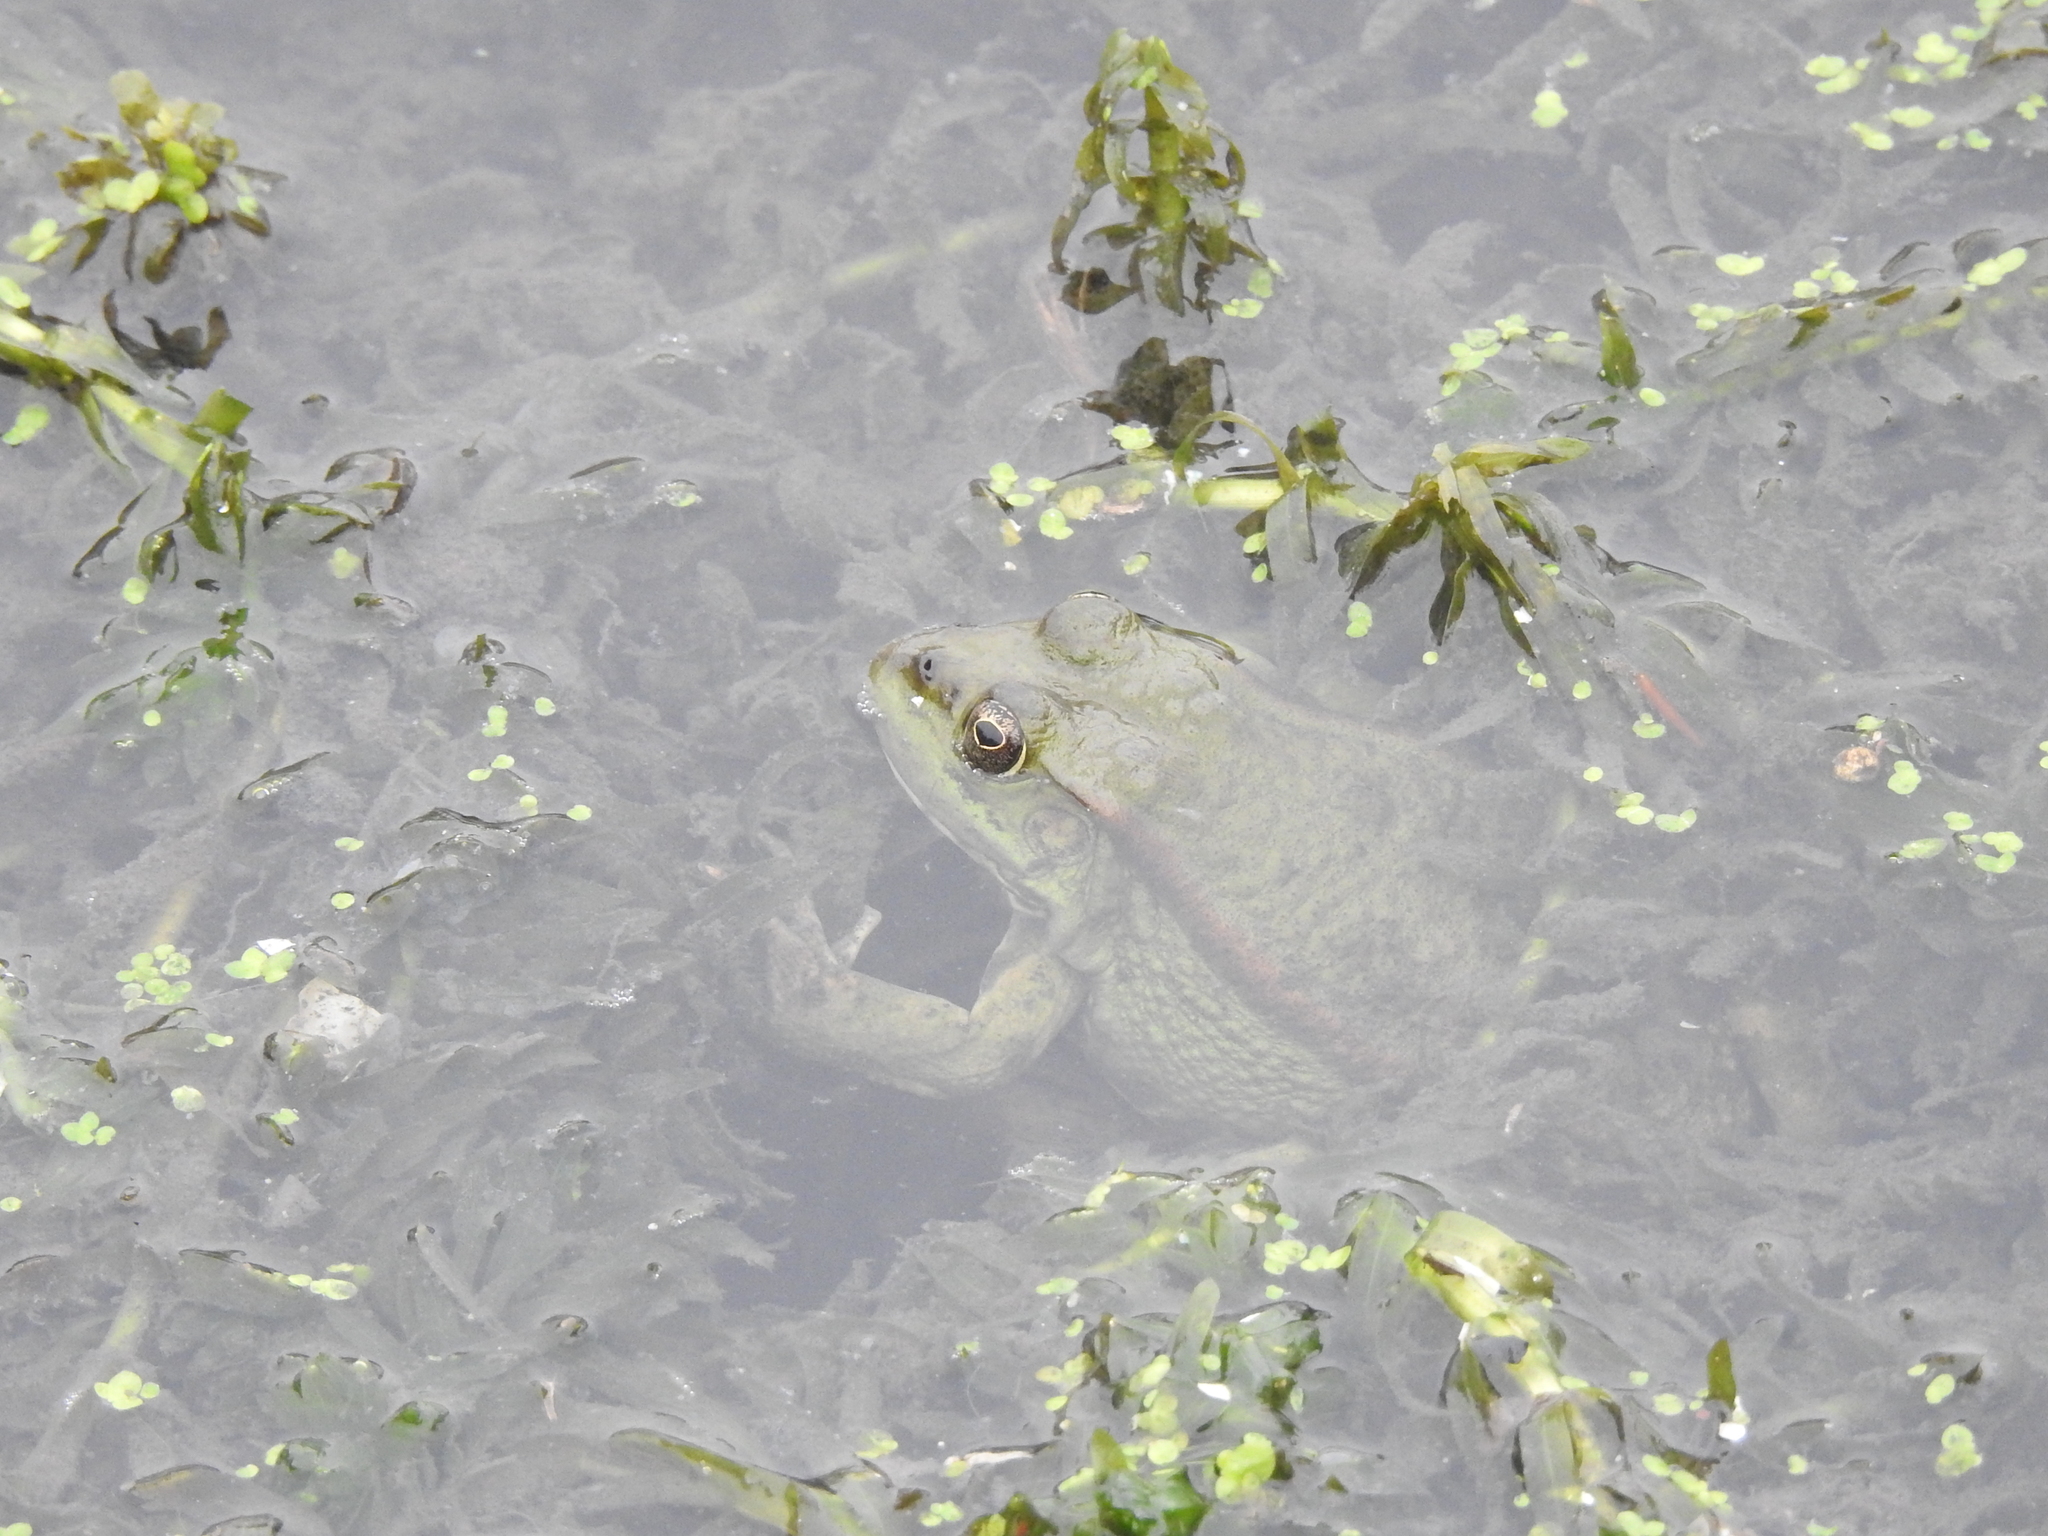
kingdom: Animalia
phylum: Chordata
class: Amphibia
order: Anura
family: Ranidae
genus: Pelophylax
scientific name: Pelophylax ridibundus
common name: Marsh frog
